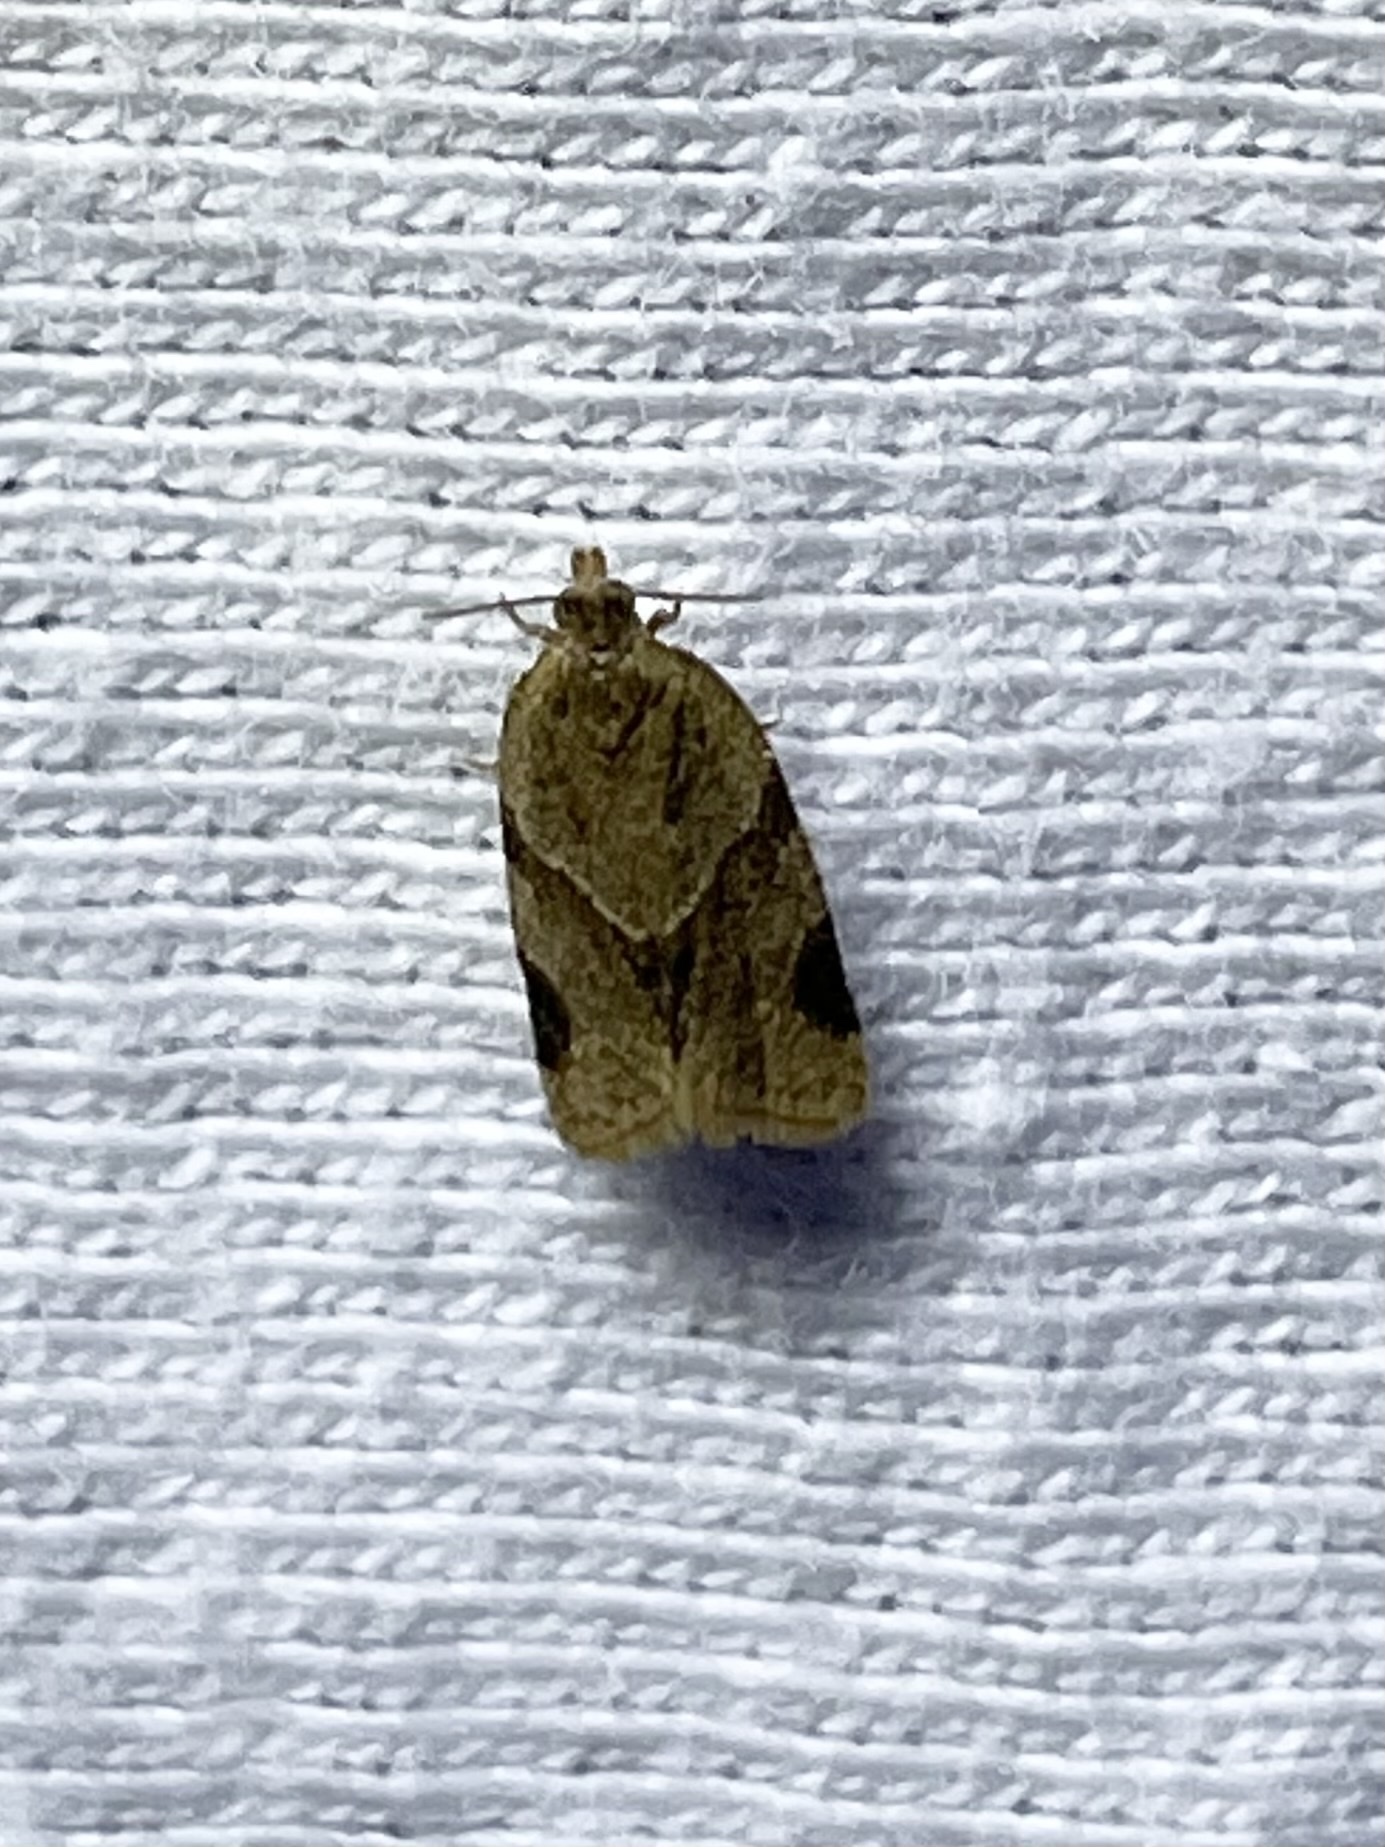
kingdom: Animalia
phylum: Arthropoda
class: Insecta
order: Lepidoptera
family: Tortricidae
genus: Clepsis
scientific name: Clepsis peritana
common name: Garden tortrix
